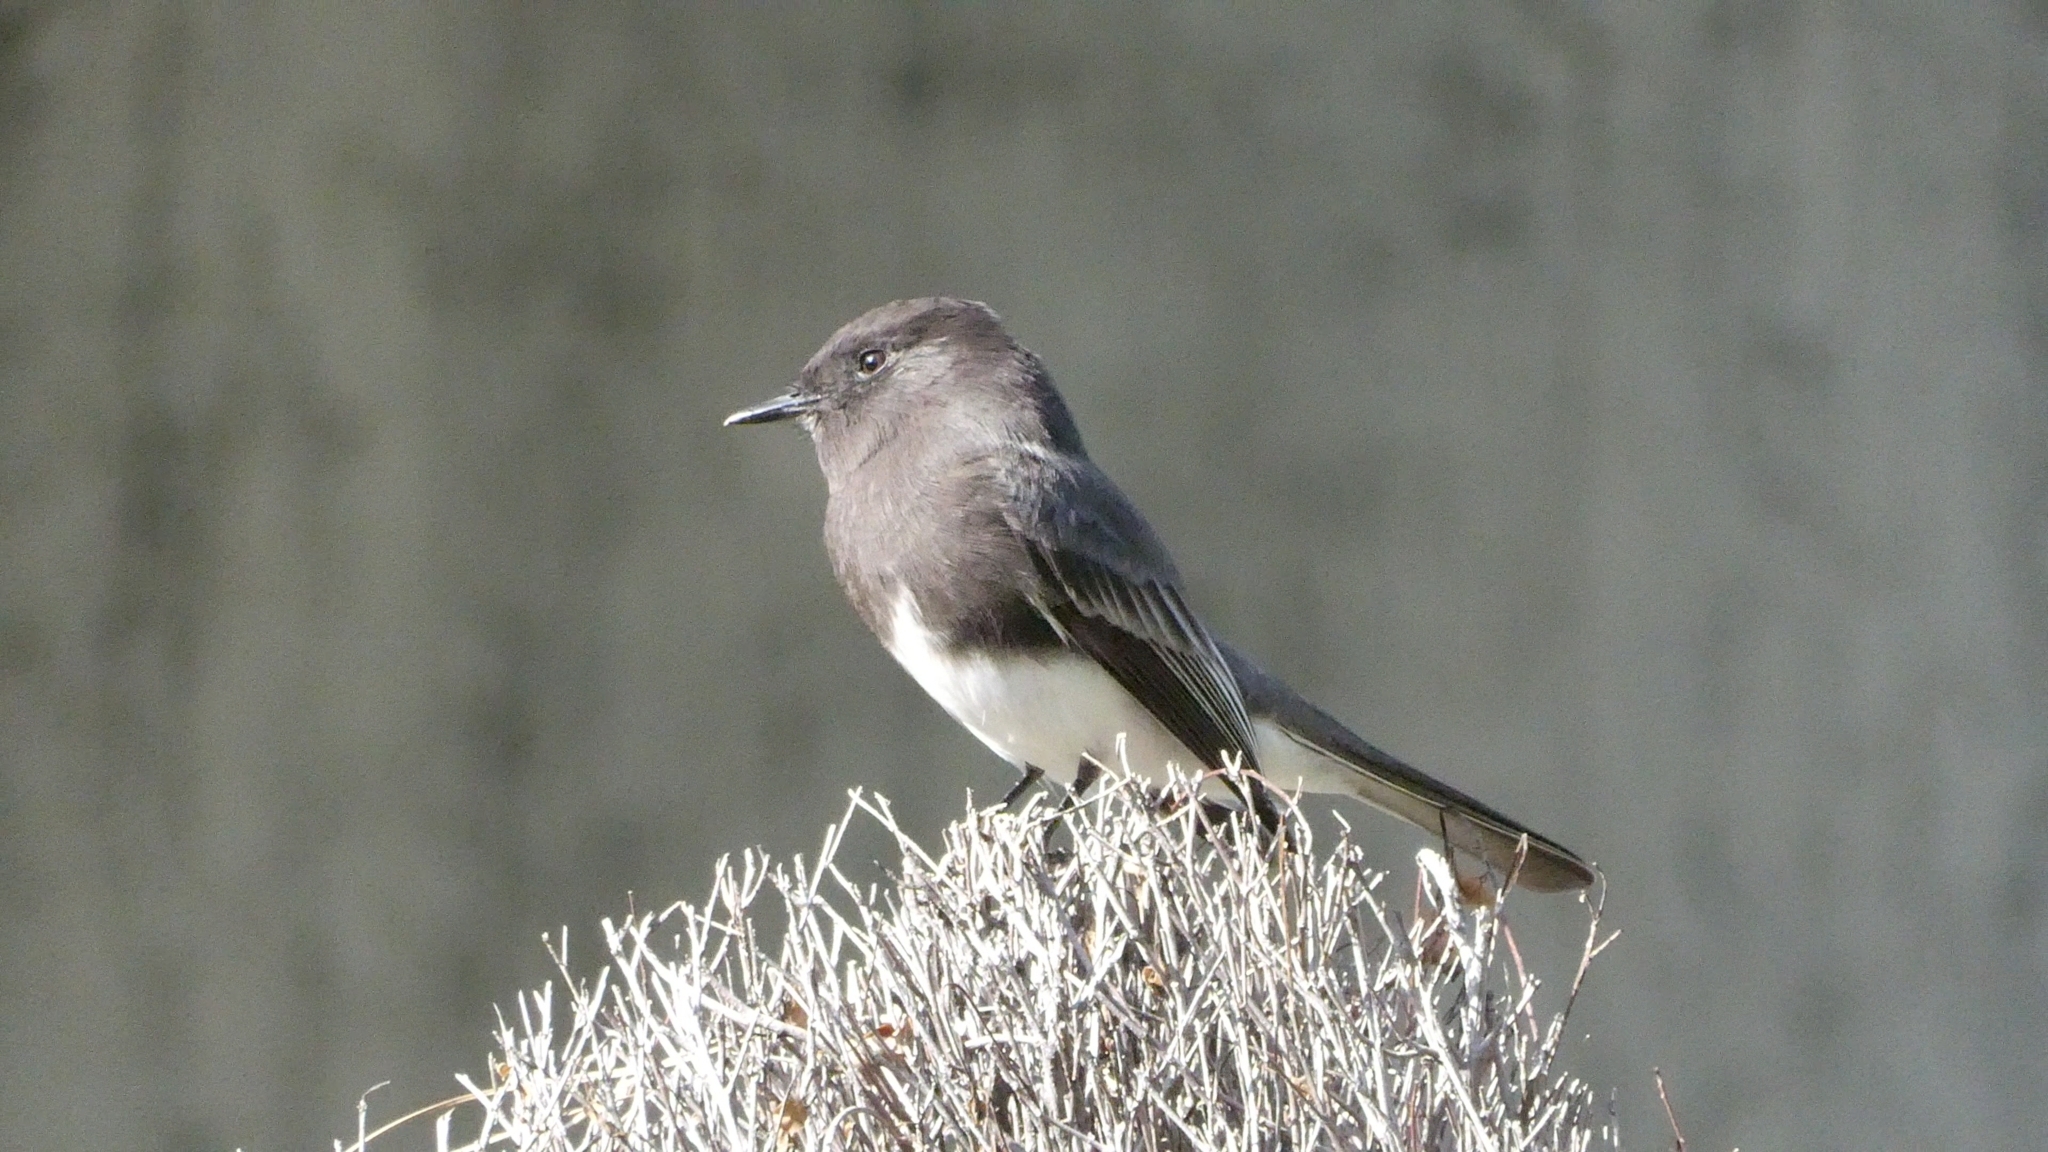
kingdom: Animalia
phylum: Chordata
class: Aves
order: Passeriformes
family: Tyrannidae
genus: Sayornis
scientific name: Sayornis nigricans
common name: Black phoebe
